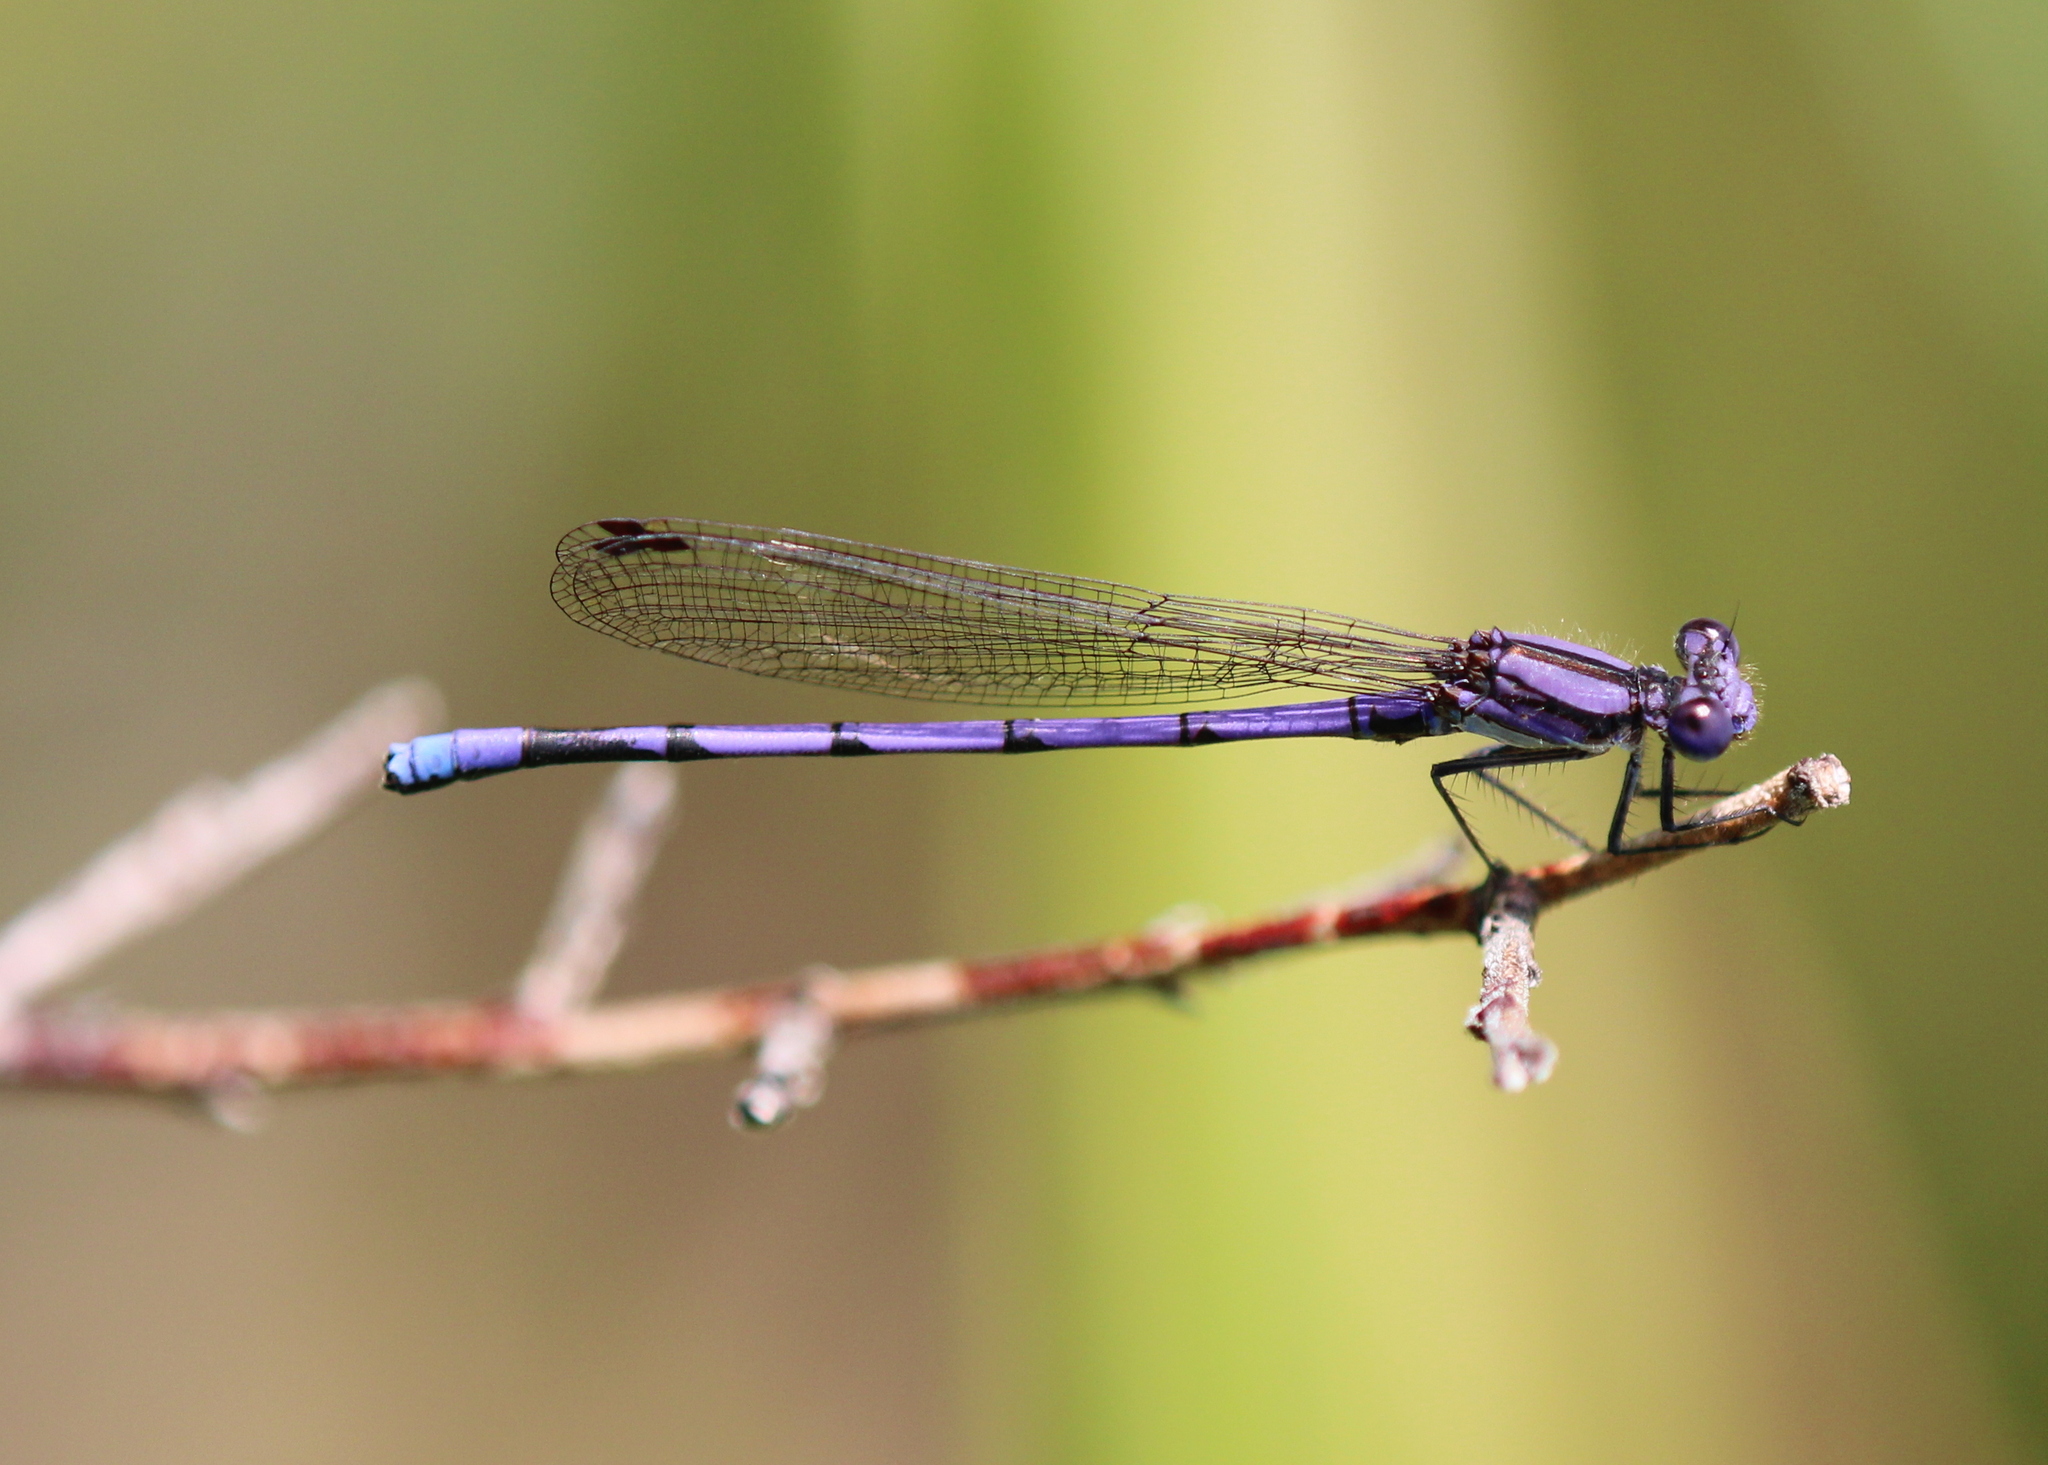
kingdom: Animalia
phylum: Arthropoda
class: Insecta
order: Odonata
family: Coenagrionidae
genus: Argia
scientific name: Argia fumipennis
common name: Variable dancer
